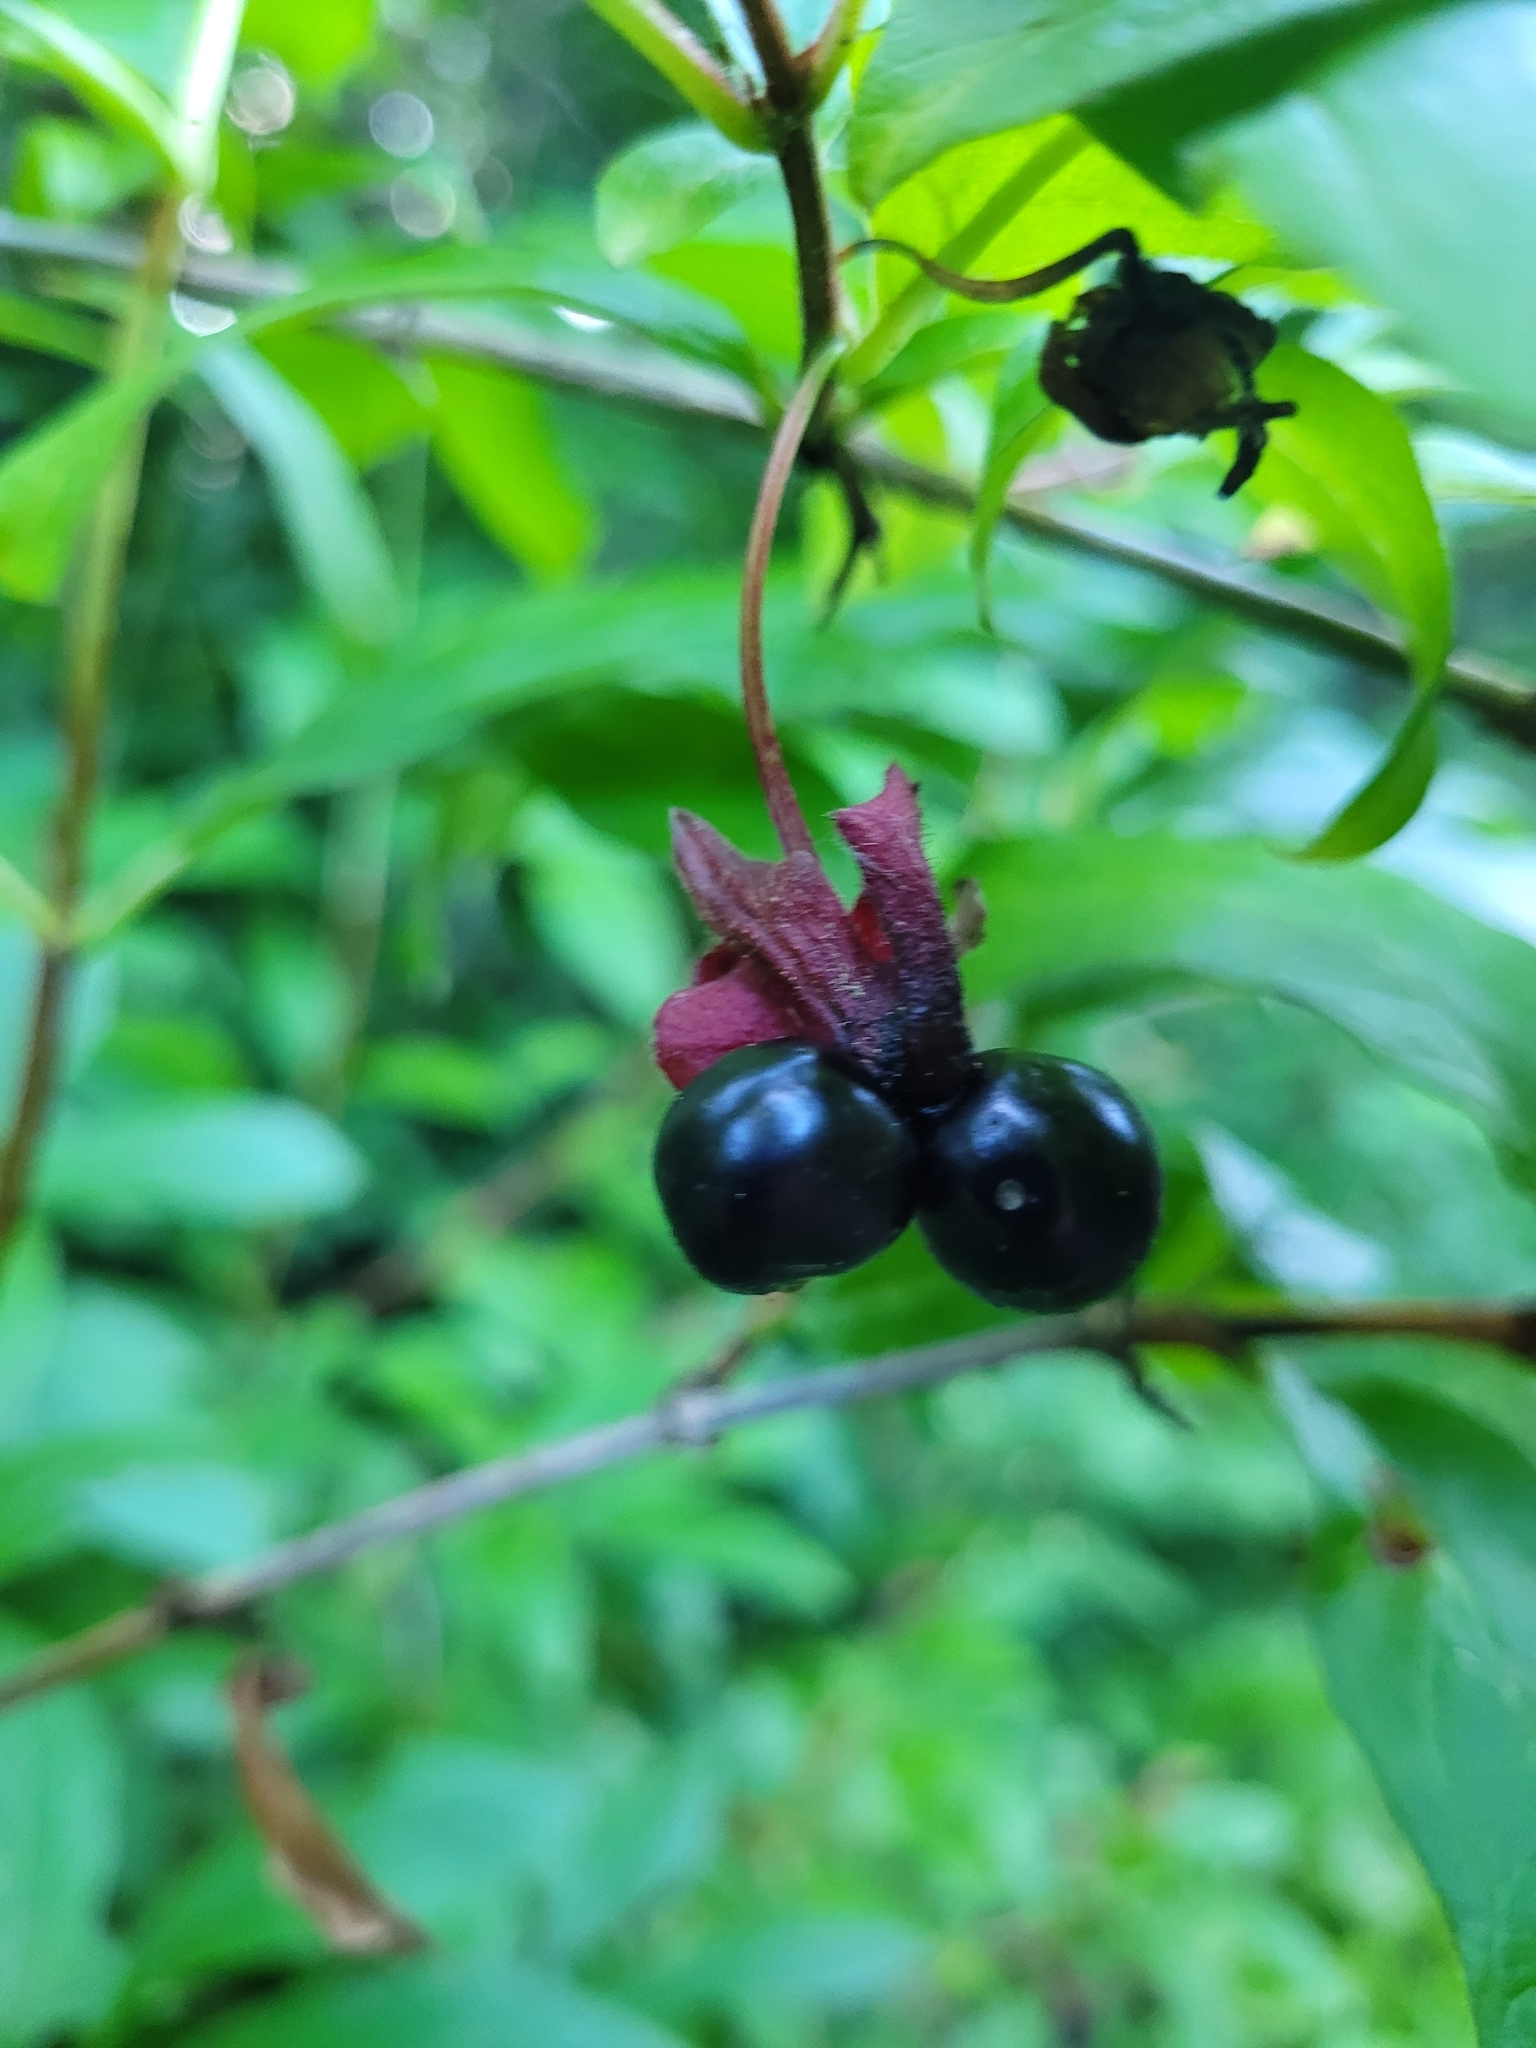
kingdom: Plantae
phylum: Tracheophyta
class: Magnoliopsida
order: Dipsacales
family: Caprifoliaceae
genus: Lonicera
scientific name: Lonicera involucrata
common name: Californian honeysuckle
